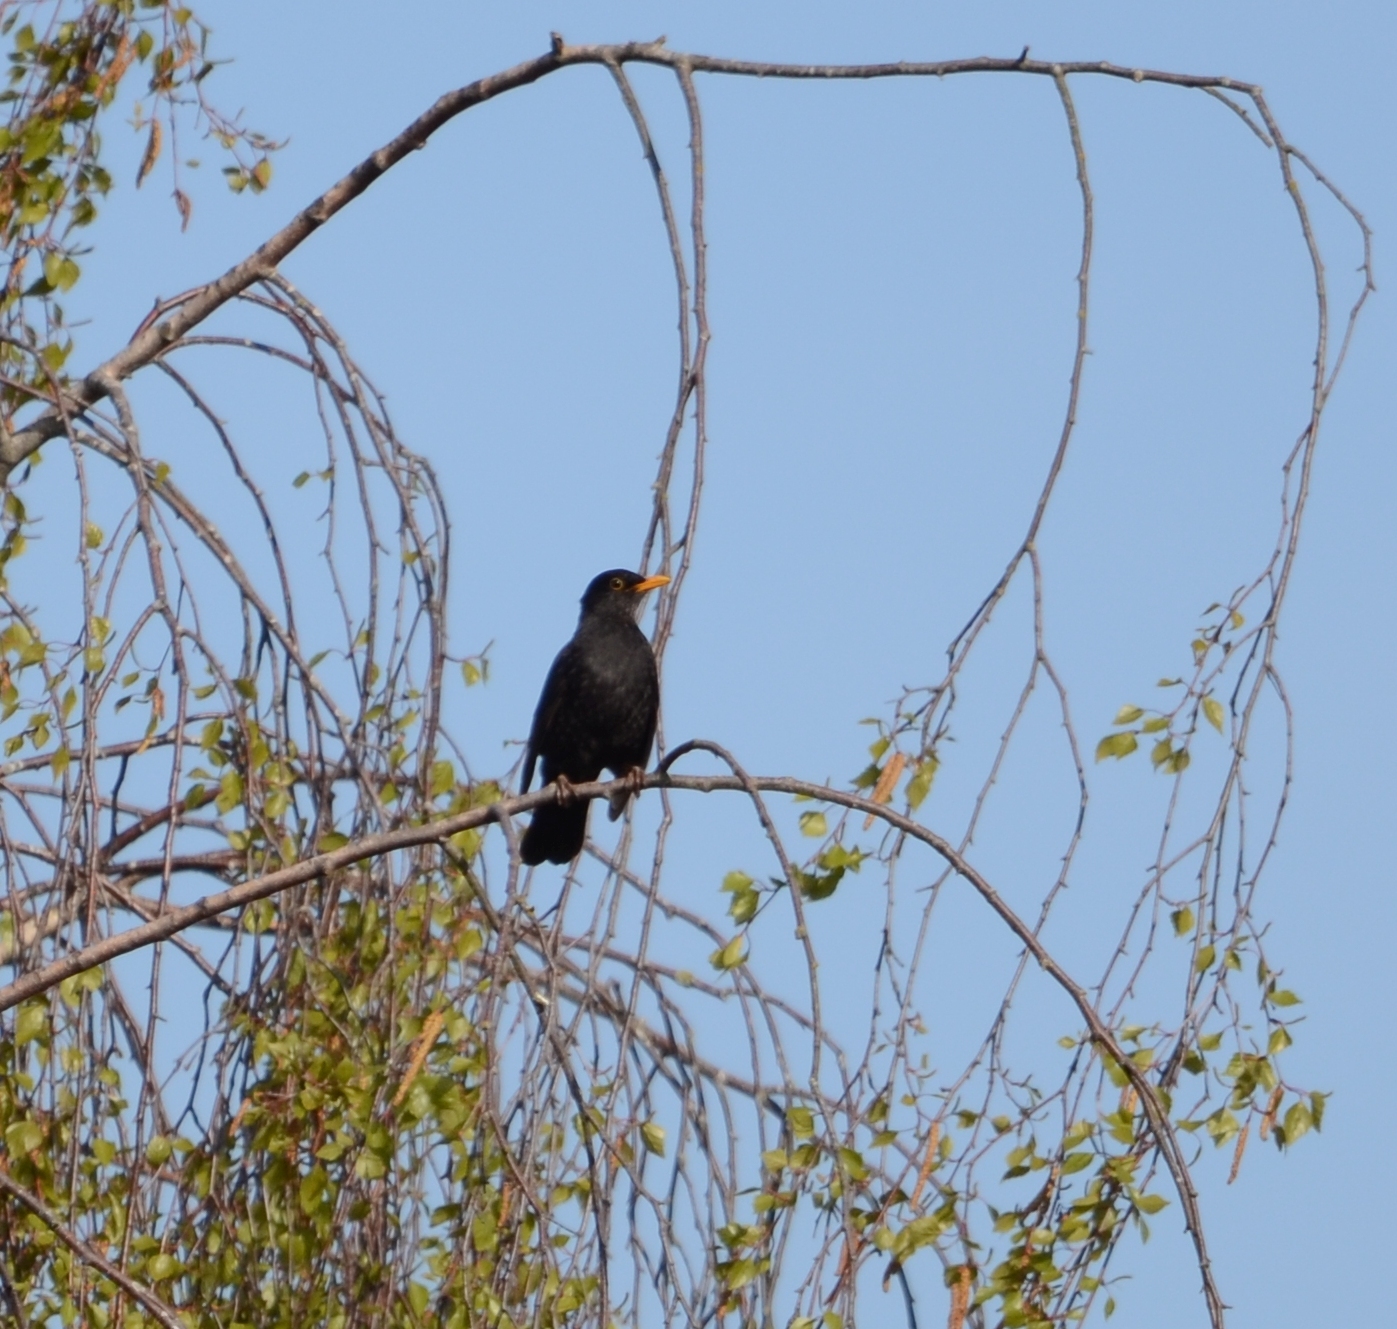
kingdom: Animalia
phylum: Chordata
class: Aves
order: Passeriformes
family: Turdidae
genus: Turdus
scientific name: Turdus merula
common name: Common blackbird
